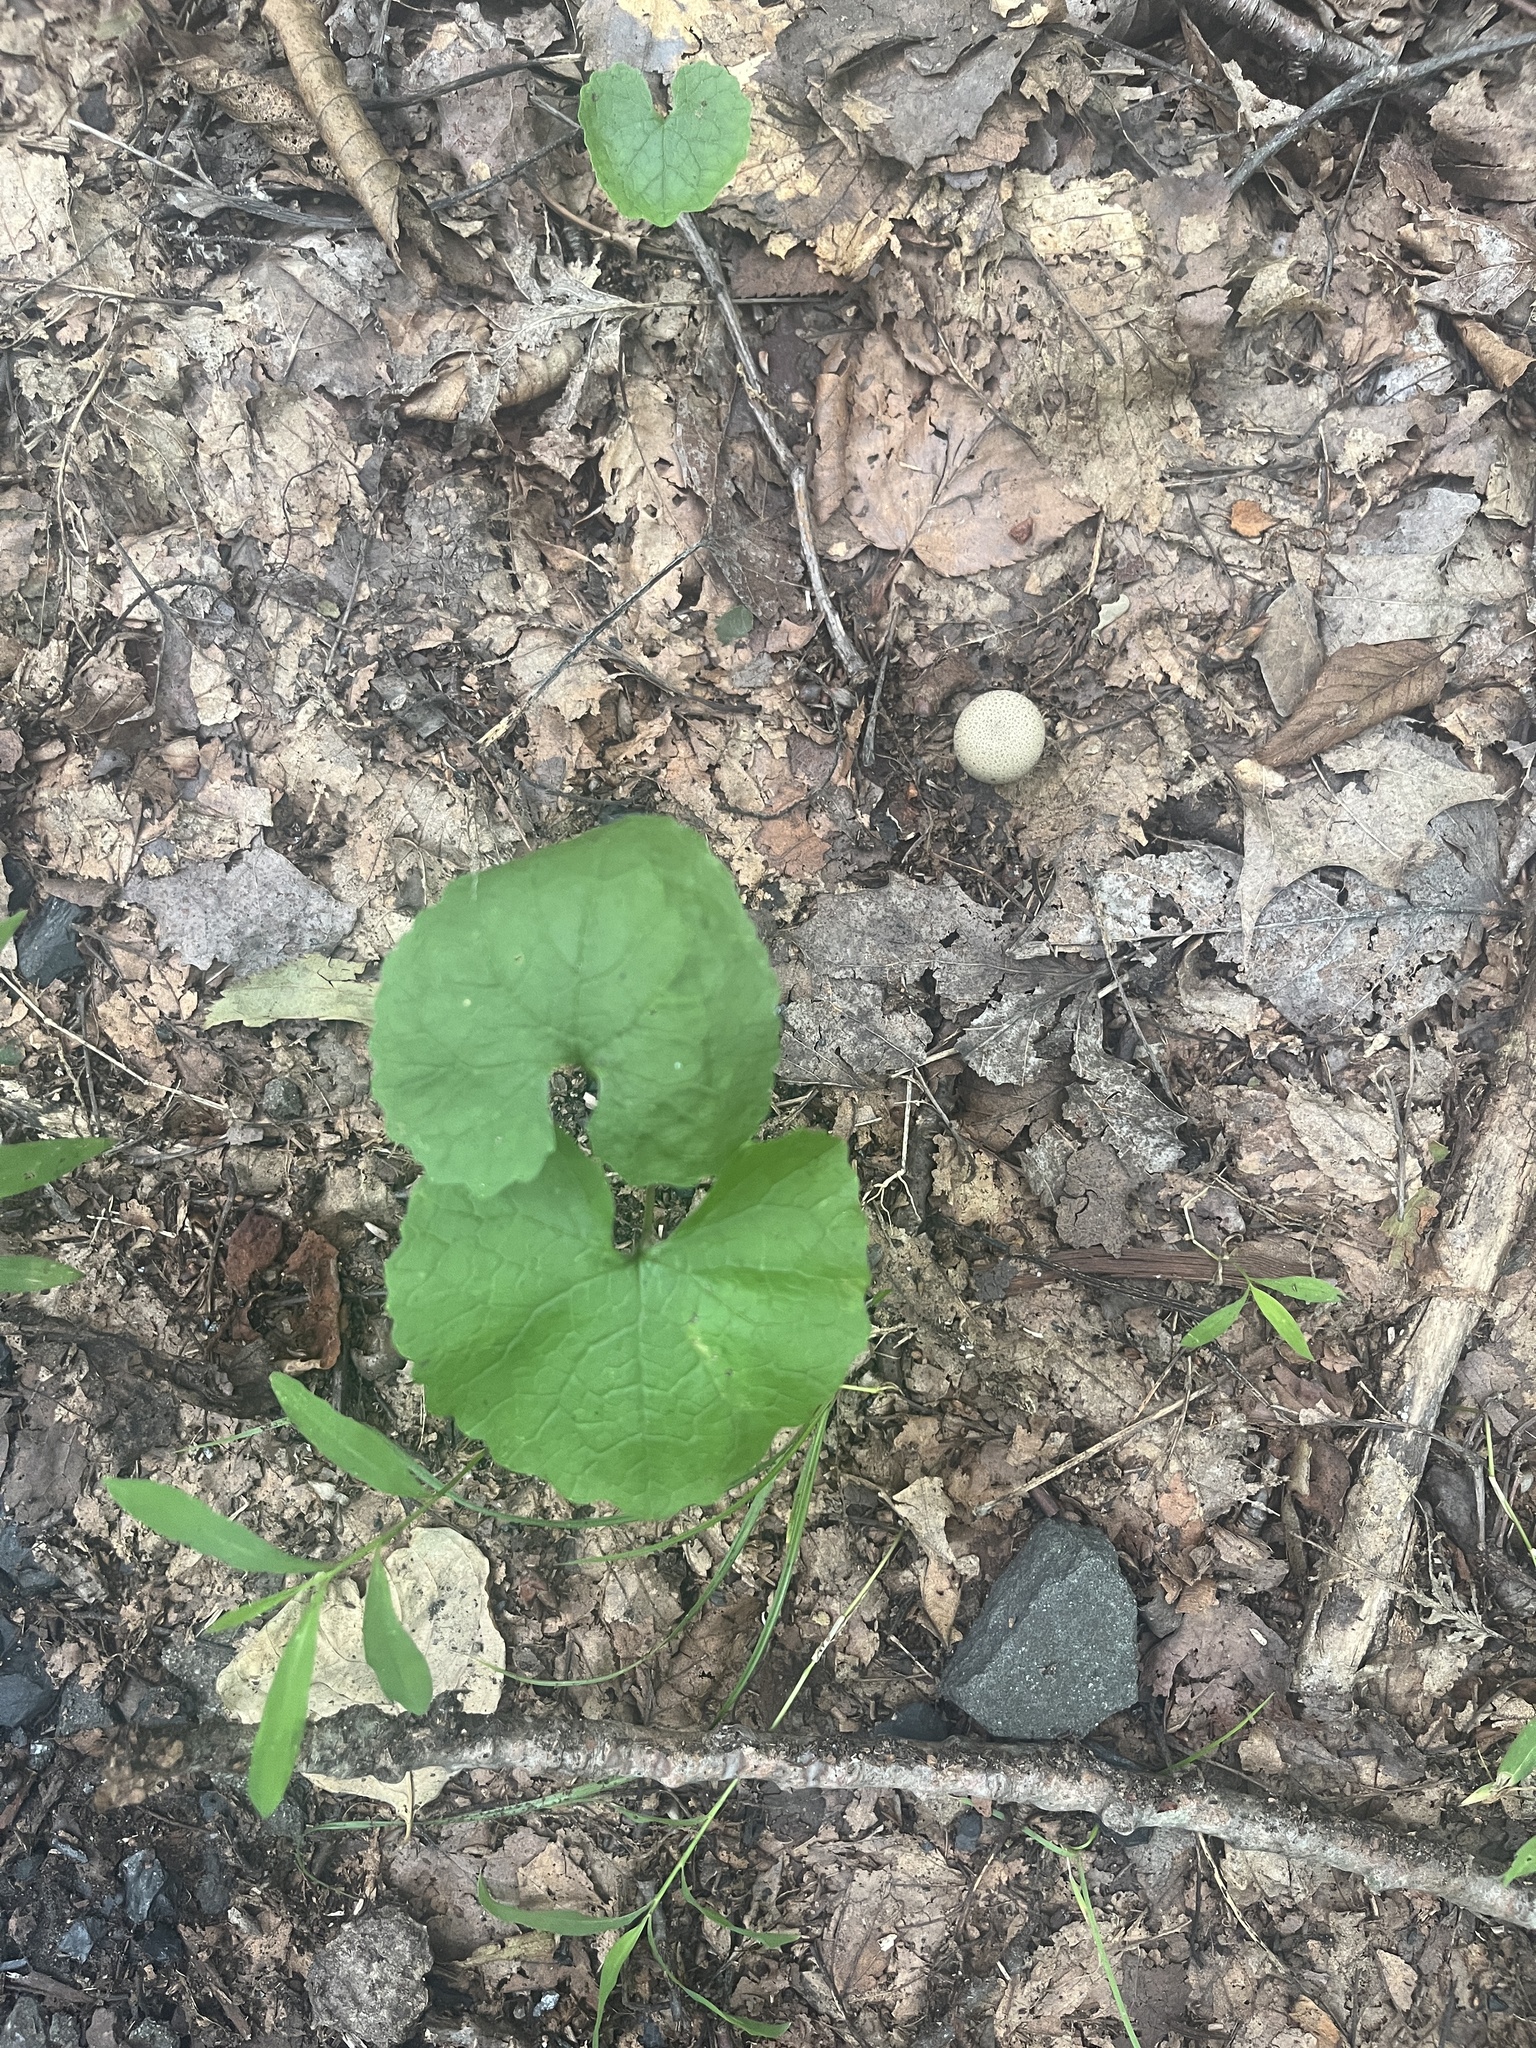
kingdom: Plantae
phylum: Tracheophyta
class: Magnoliopsida
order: Brassicales
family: Brassicaceae
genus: Alliaria
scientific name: Alliaria petiolata
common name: Garlic mustard
